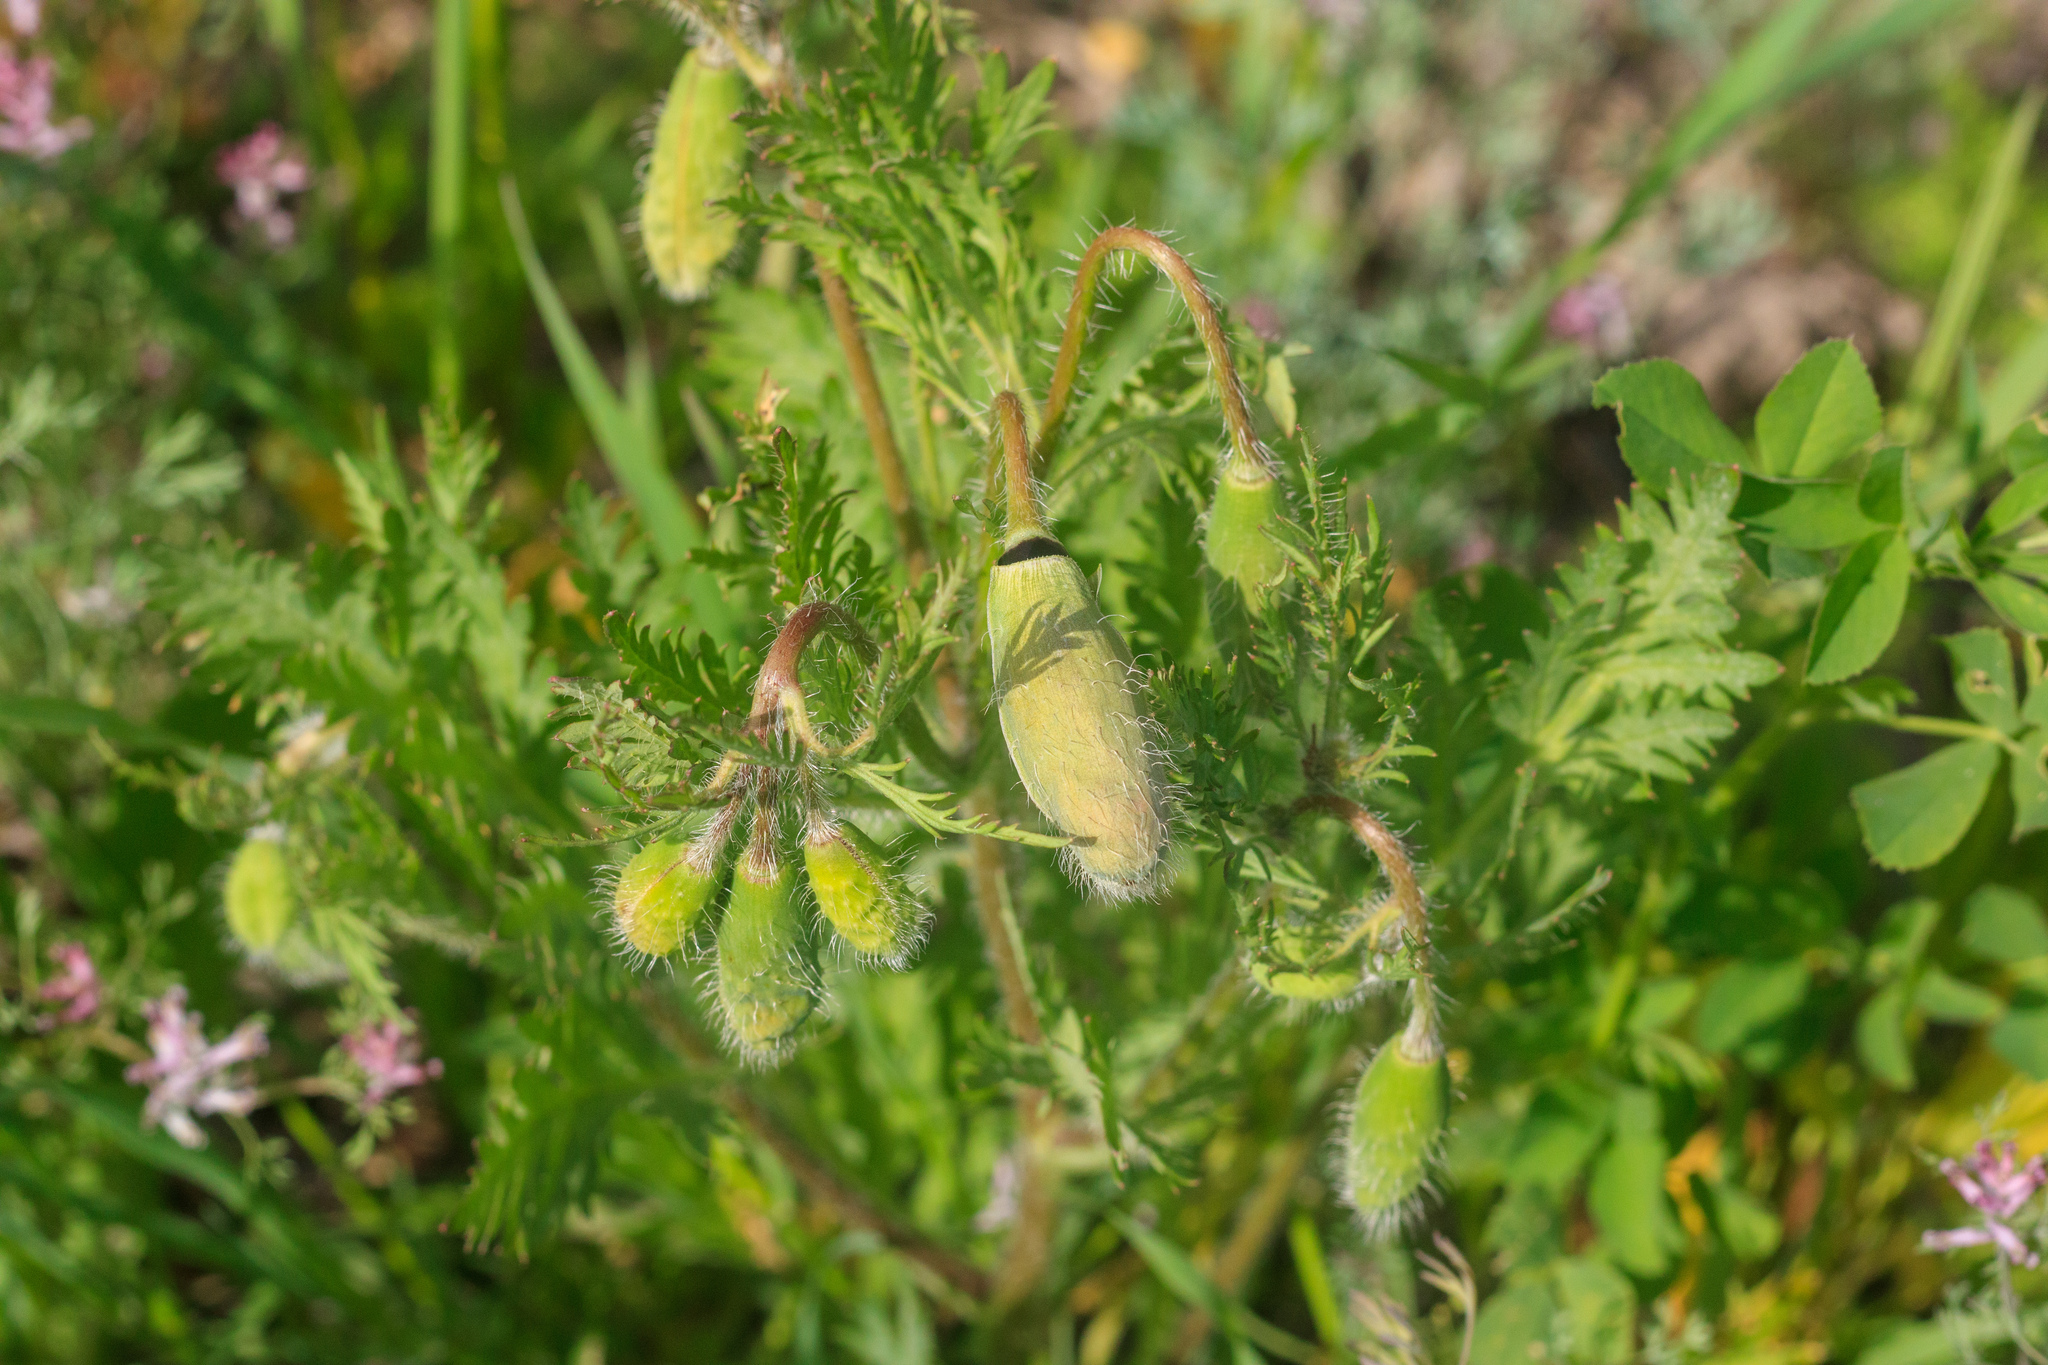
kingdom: Plantae
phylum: Tracheophyta
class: Magnoliopsida
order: Ranunculales
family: Papaveraceae
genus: Roemeria
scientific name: Roemeria refracta
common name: Spotted asian poppy
